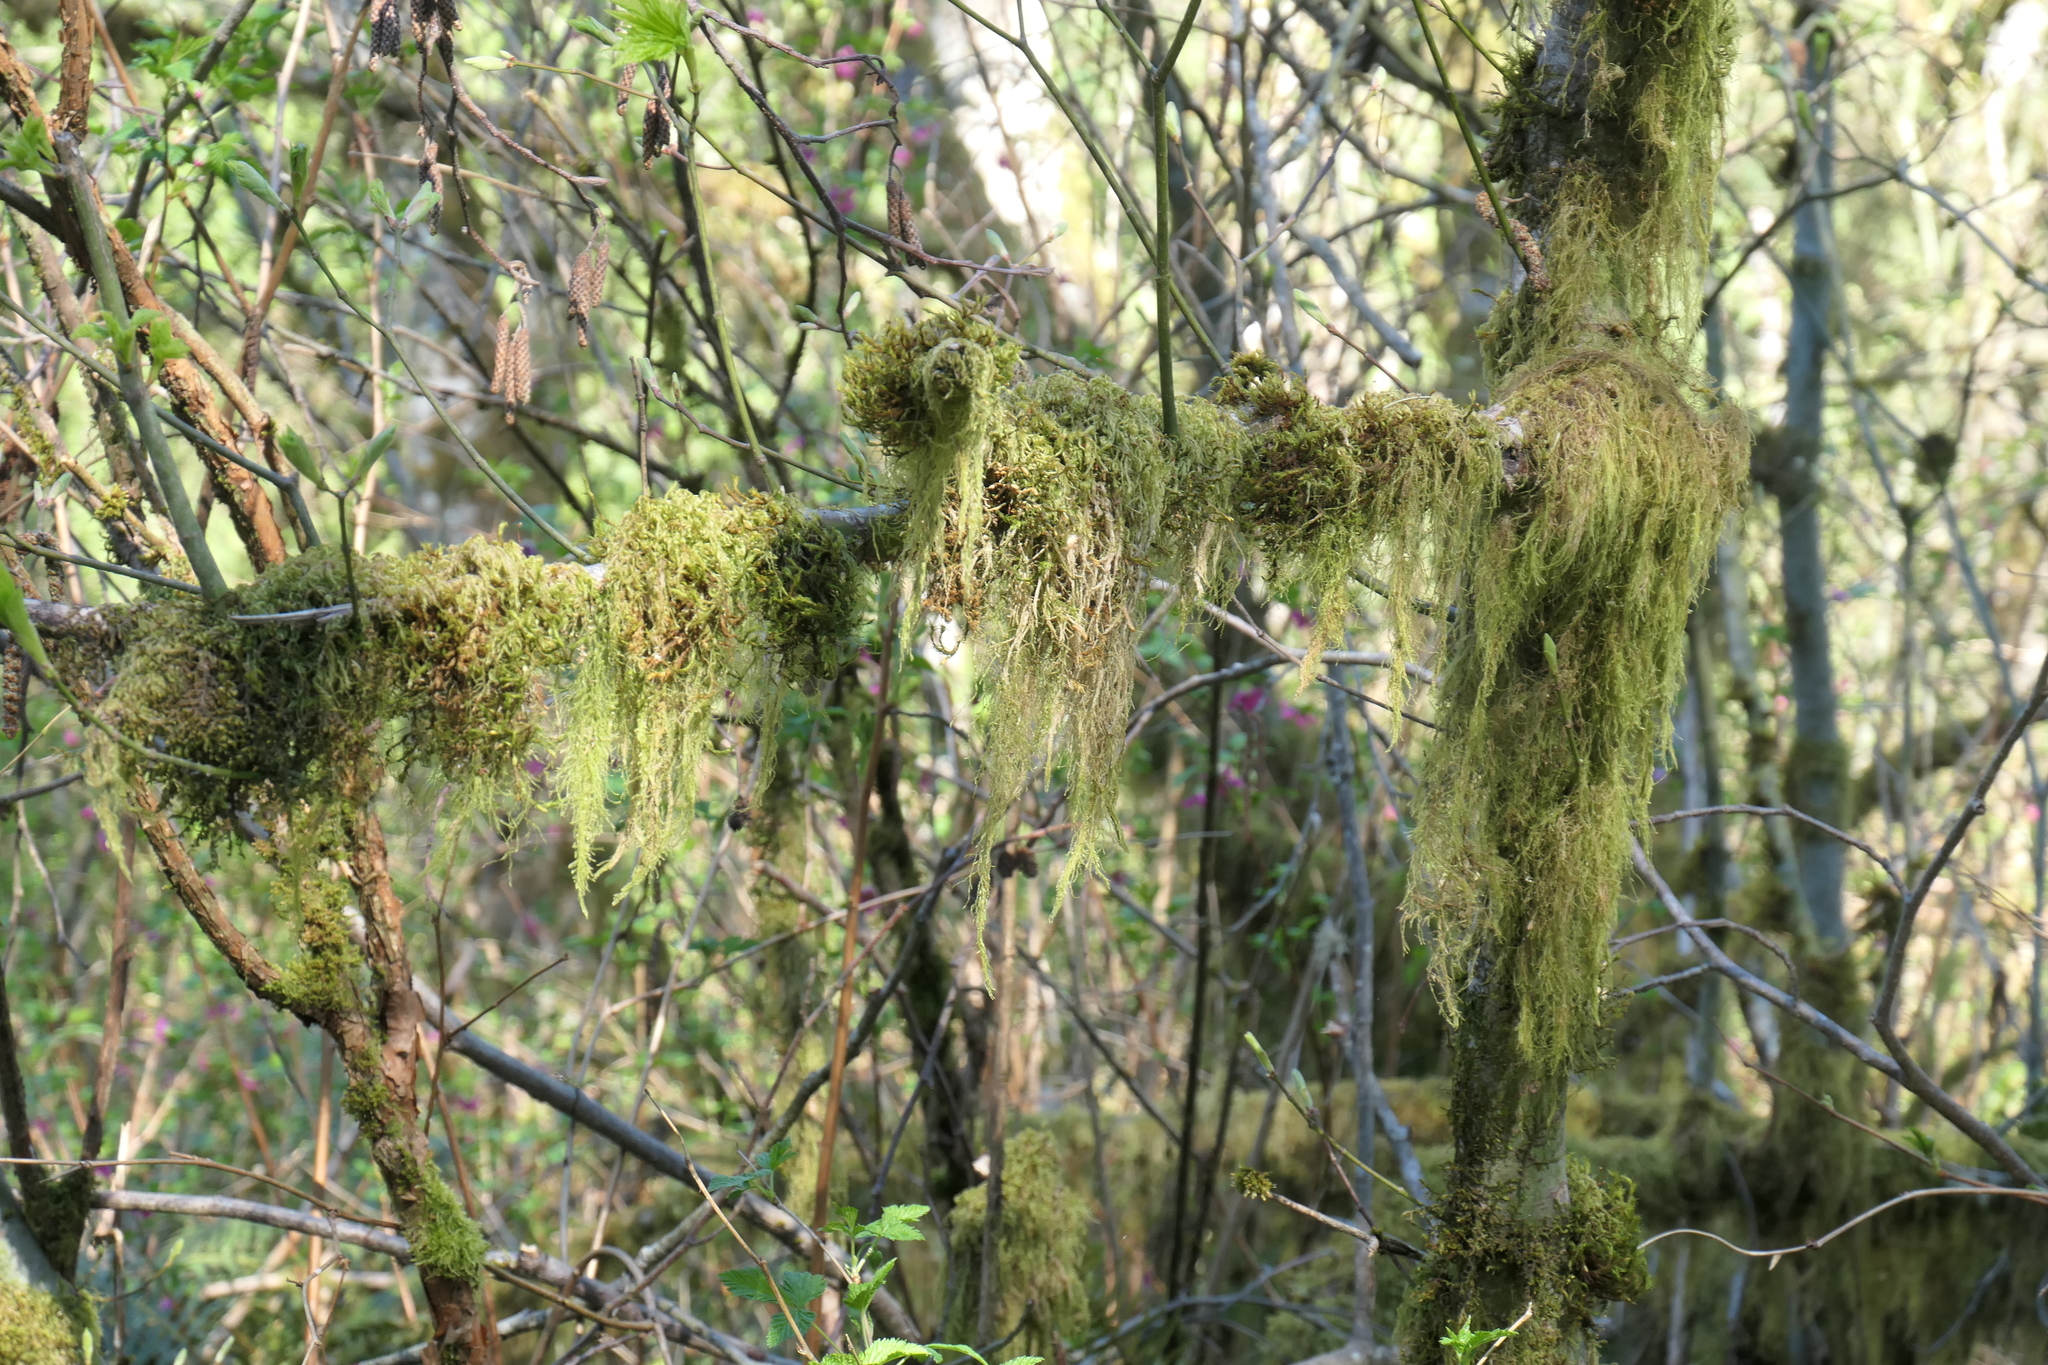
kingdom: Plantae
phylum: Bryophyta
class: Bryopsida
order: Hypnales
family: Lembophyllaceae
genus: Pseudisothecium
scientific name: Pseudisothecium stoloniferum
